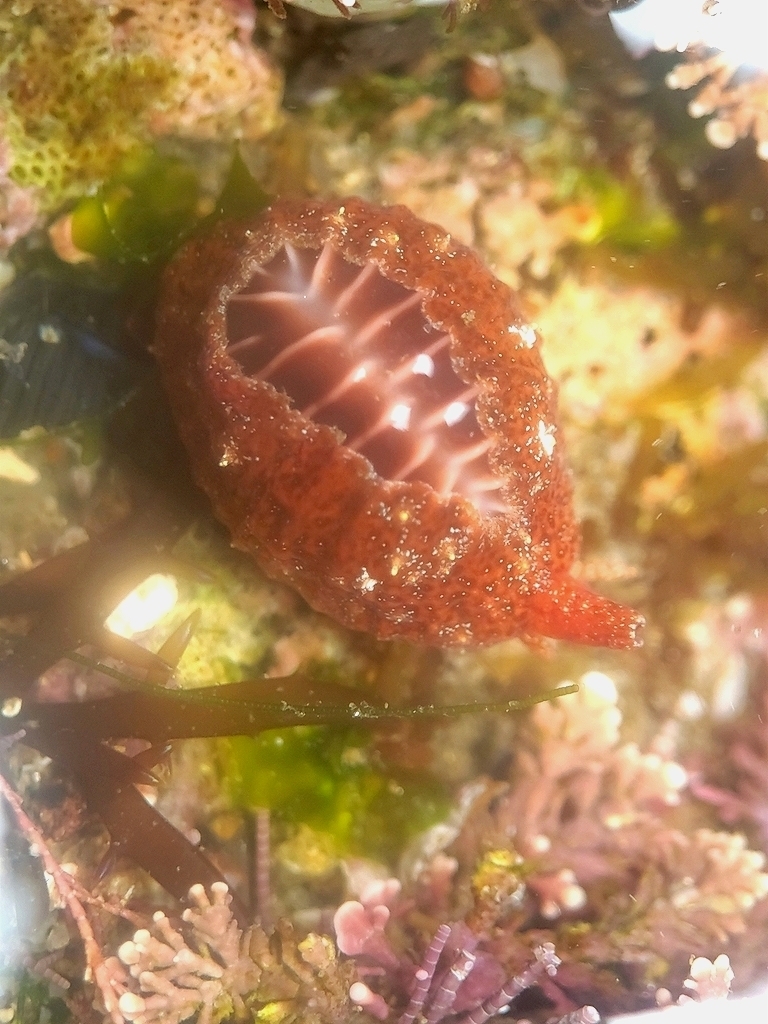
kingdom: Animalia
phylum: Mollusca
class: Gastropoda
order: Littorinimorpha
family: Triviidae
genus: Pseudopusula
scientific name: Pseudopusula californiana
